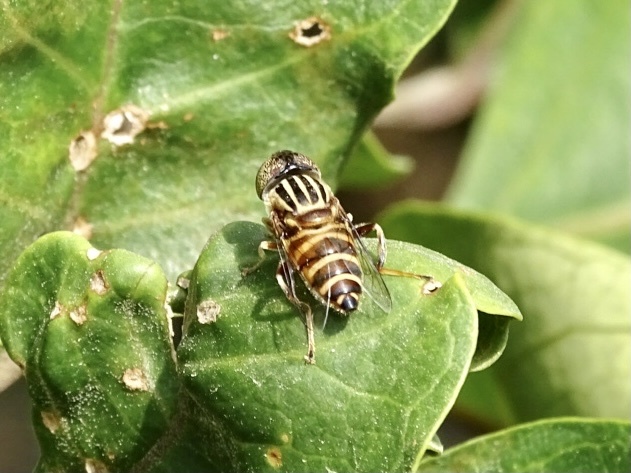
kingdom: Animalia
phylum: Arthropoda
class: Insecta
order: Diptera
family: Syrphidae
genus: Eristalinus
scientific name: Eristalinus arvorum
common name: Syrphid fly
